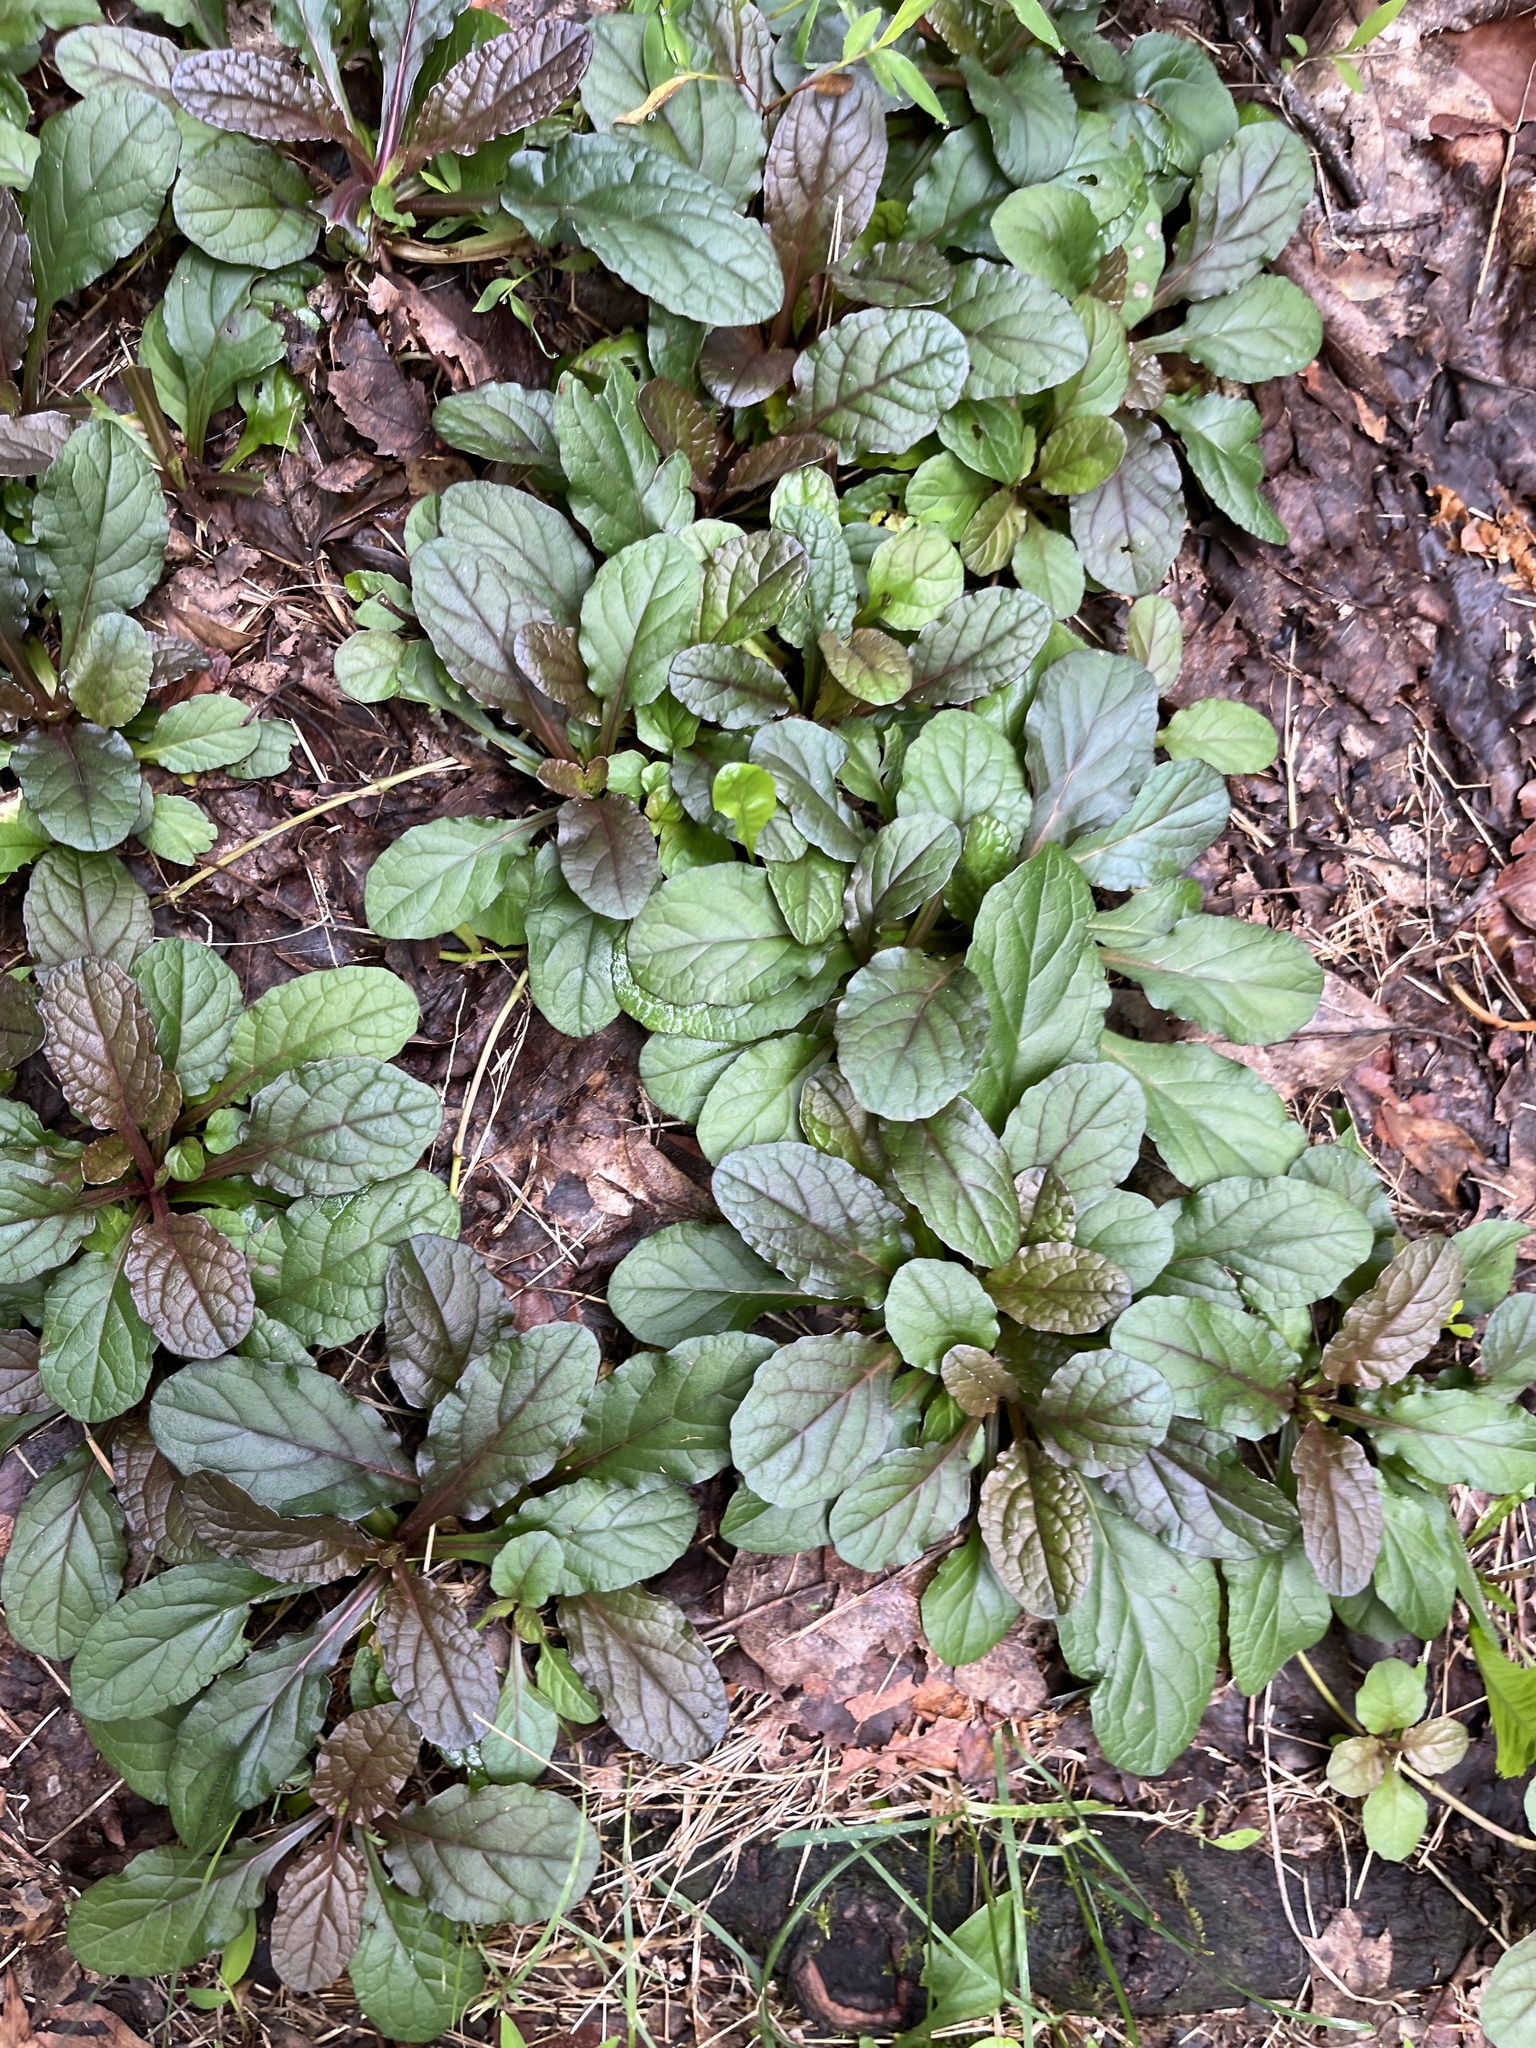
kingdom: Plantae
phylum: Tracheophyta
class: Magnoliopsida
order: Lamiales
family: Lamiaceae
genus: Ajuga
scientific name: Ajuga reptans
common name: Bugle
